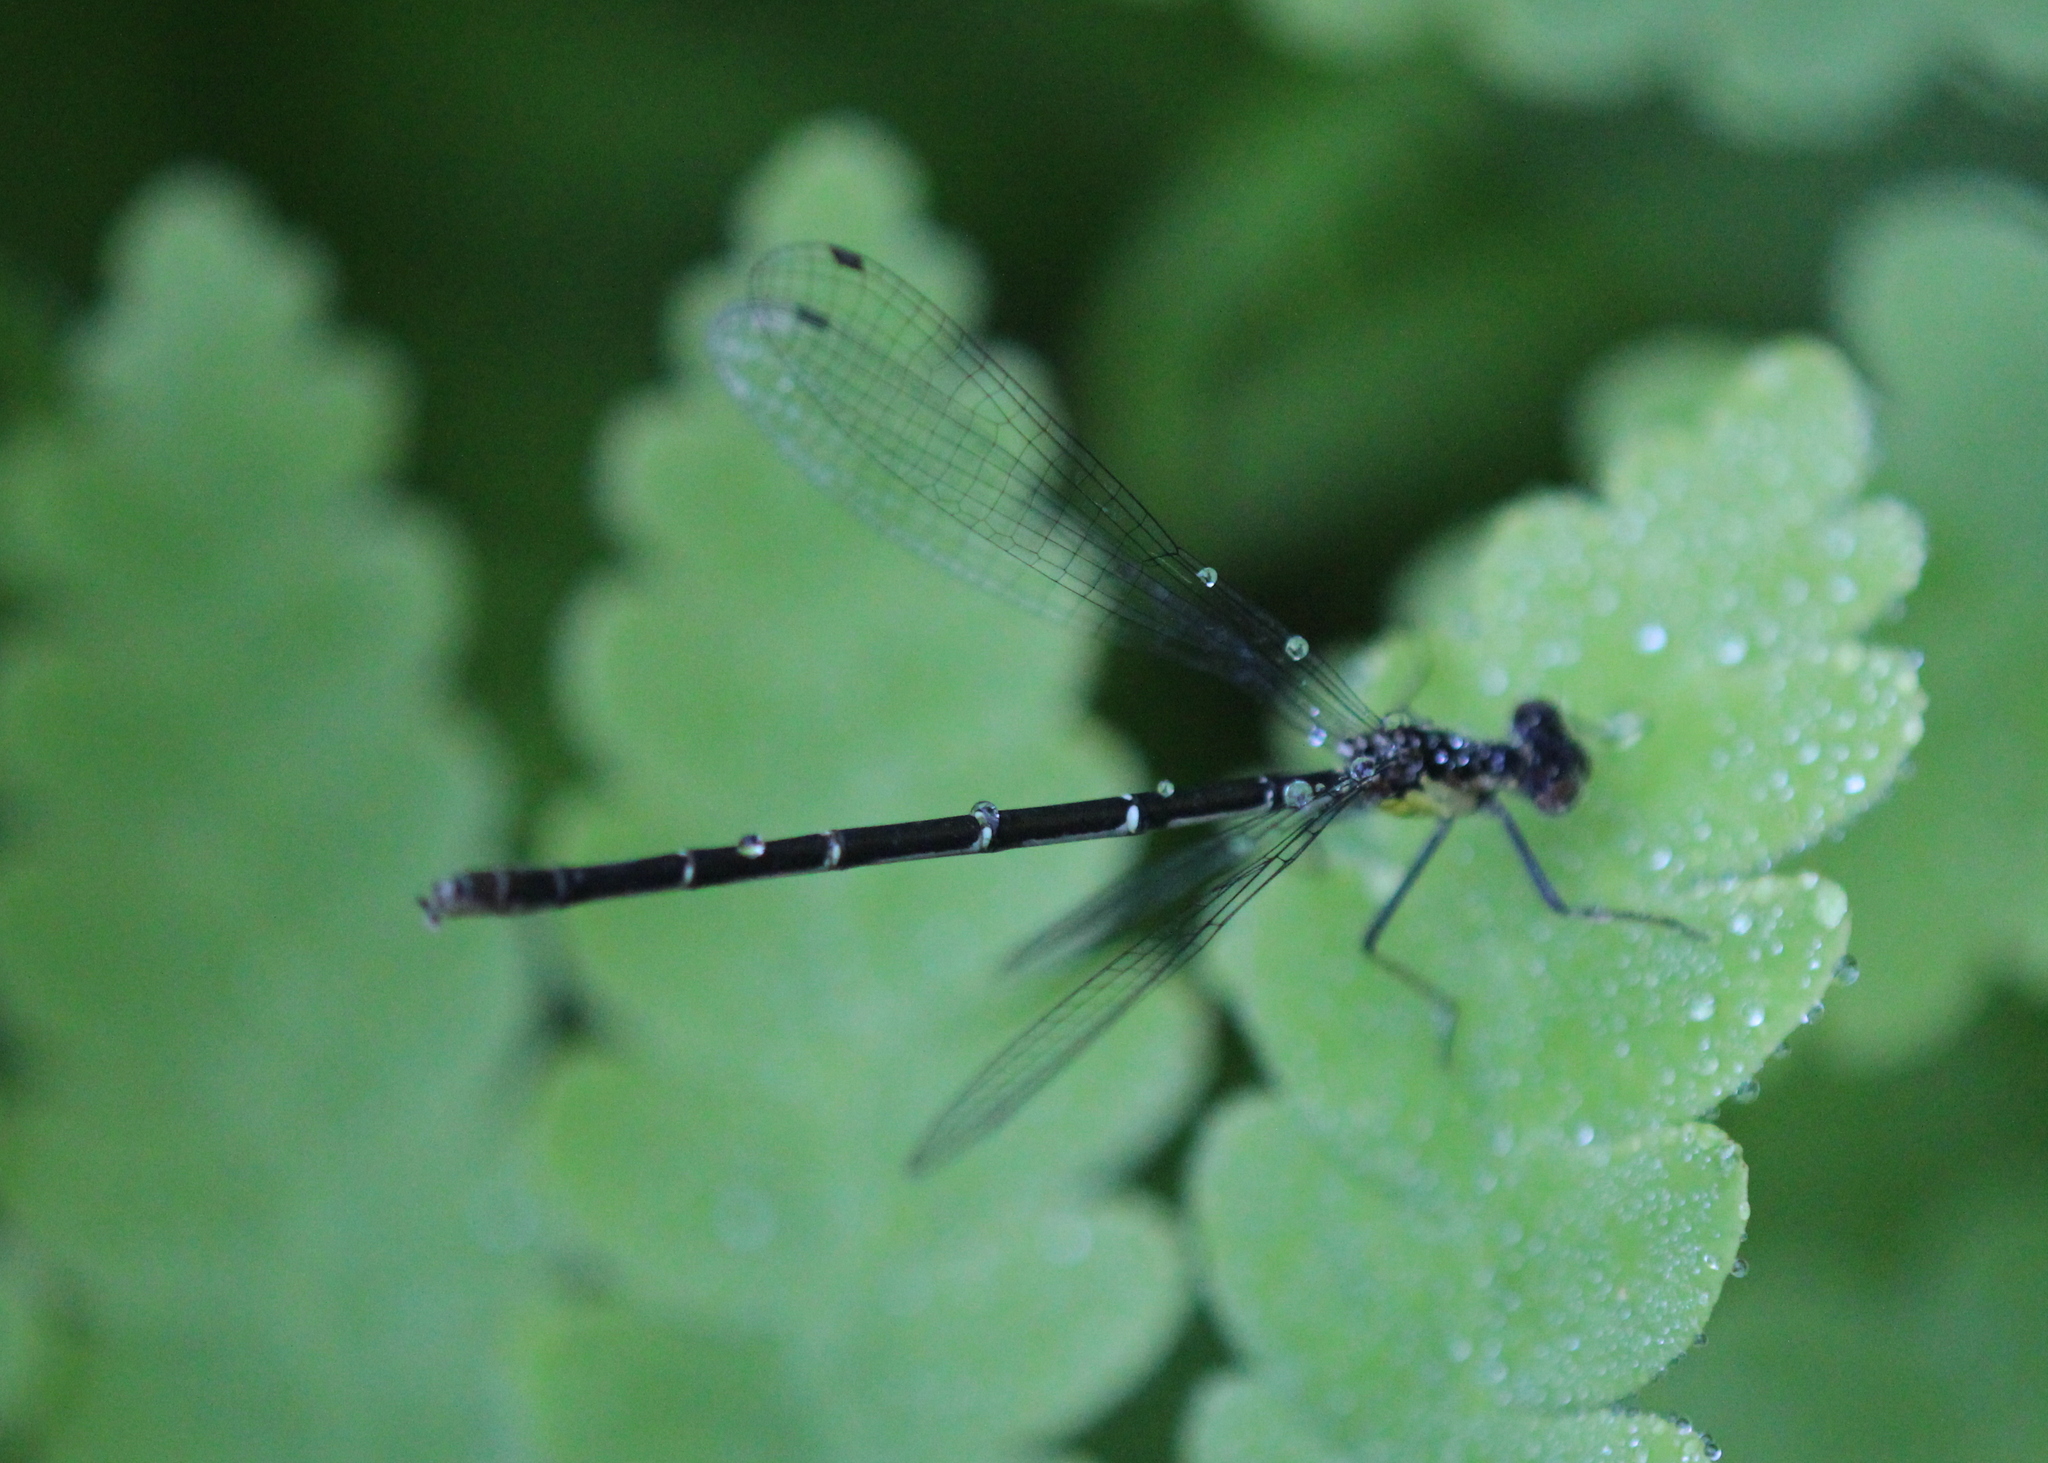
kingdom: Animalia
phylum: Arthropoda
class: Insecta
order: Odonata
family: Coenagrionidae
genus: Chromagrion
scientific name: Chromagrion conditum
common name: Aurora damsel
